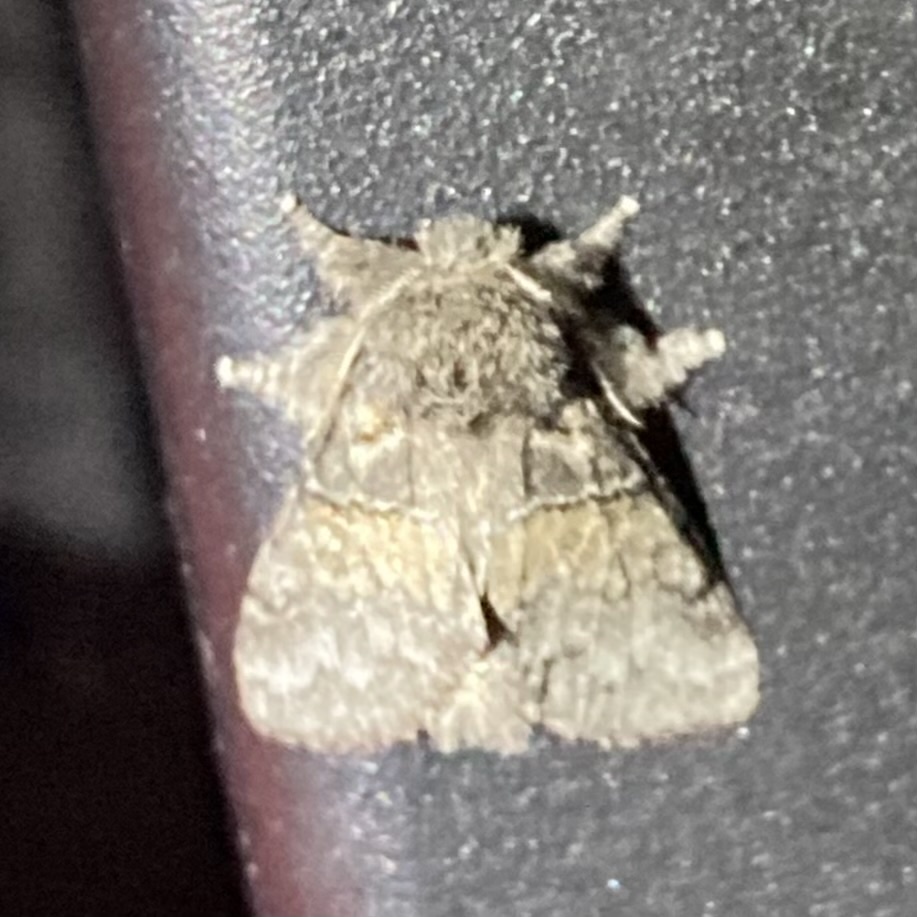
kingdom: Animalia
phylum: Arthropoda
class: Insecta
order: Lepidoptera
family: Notodontidae
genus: Gluphisia
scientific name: Gluphisia septentrionis
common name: Common gluphisia
